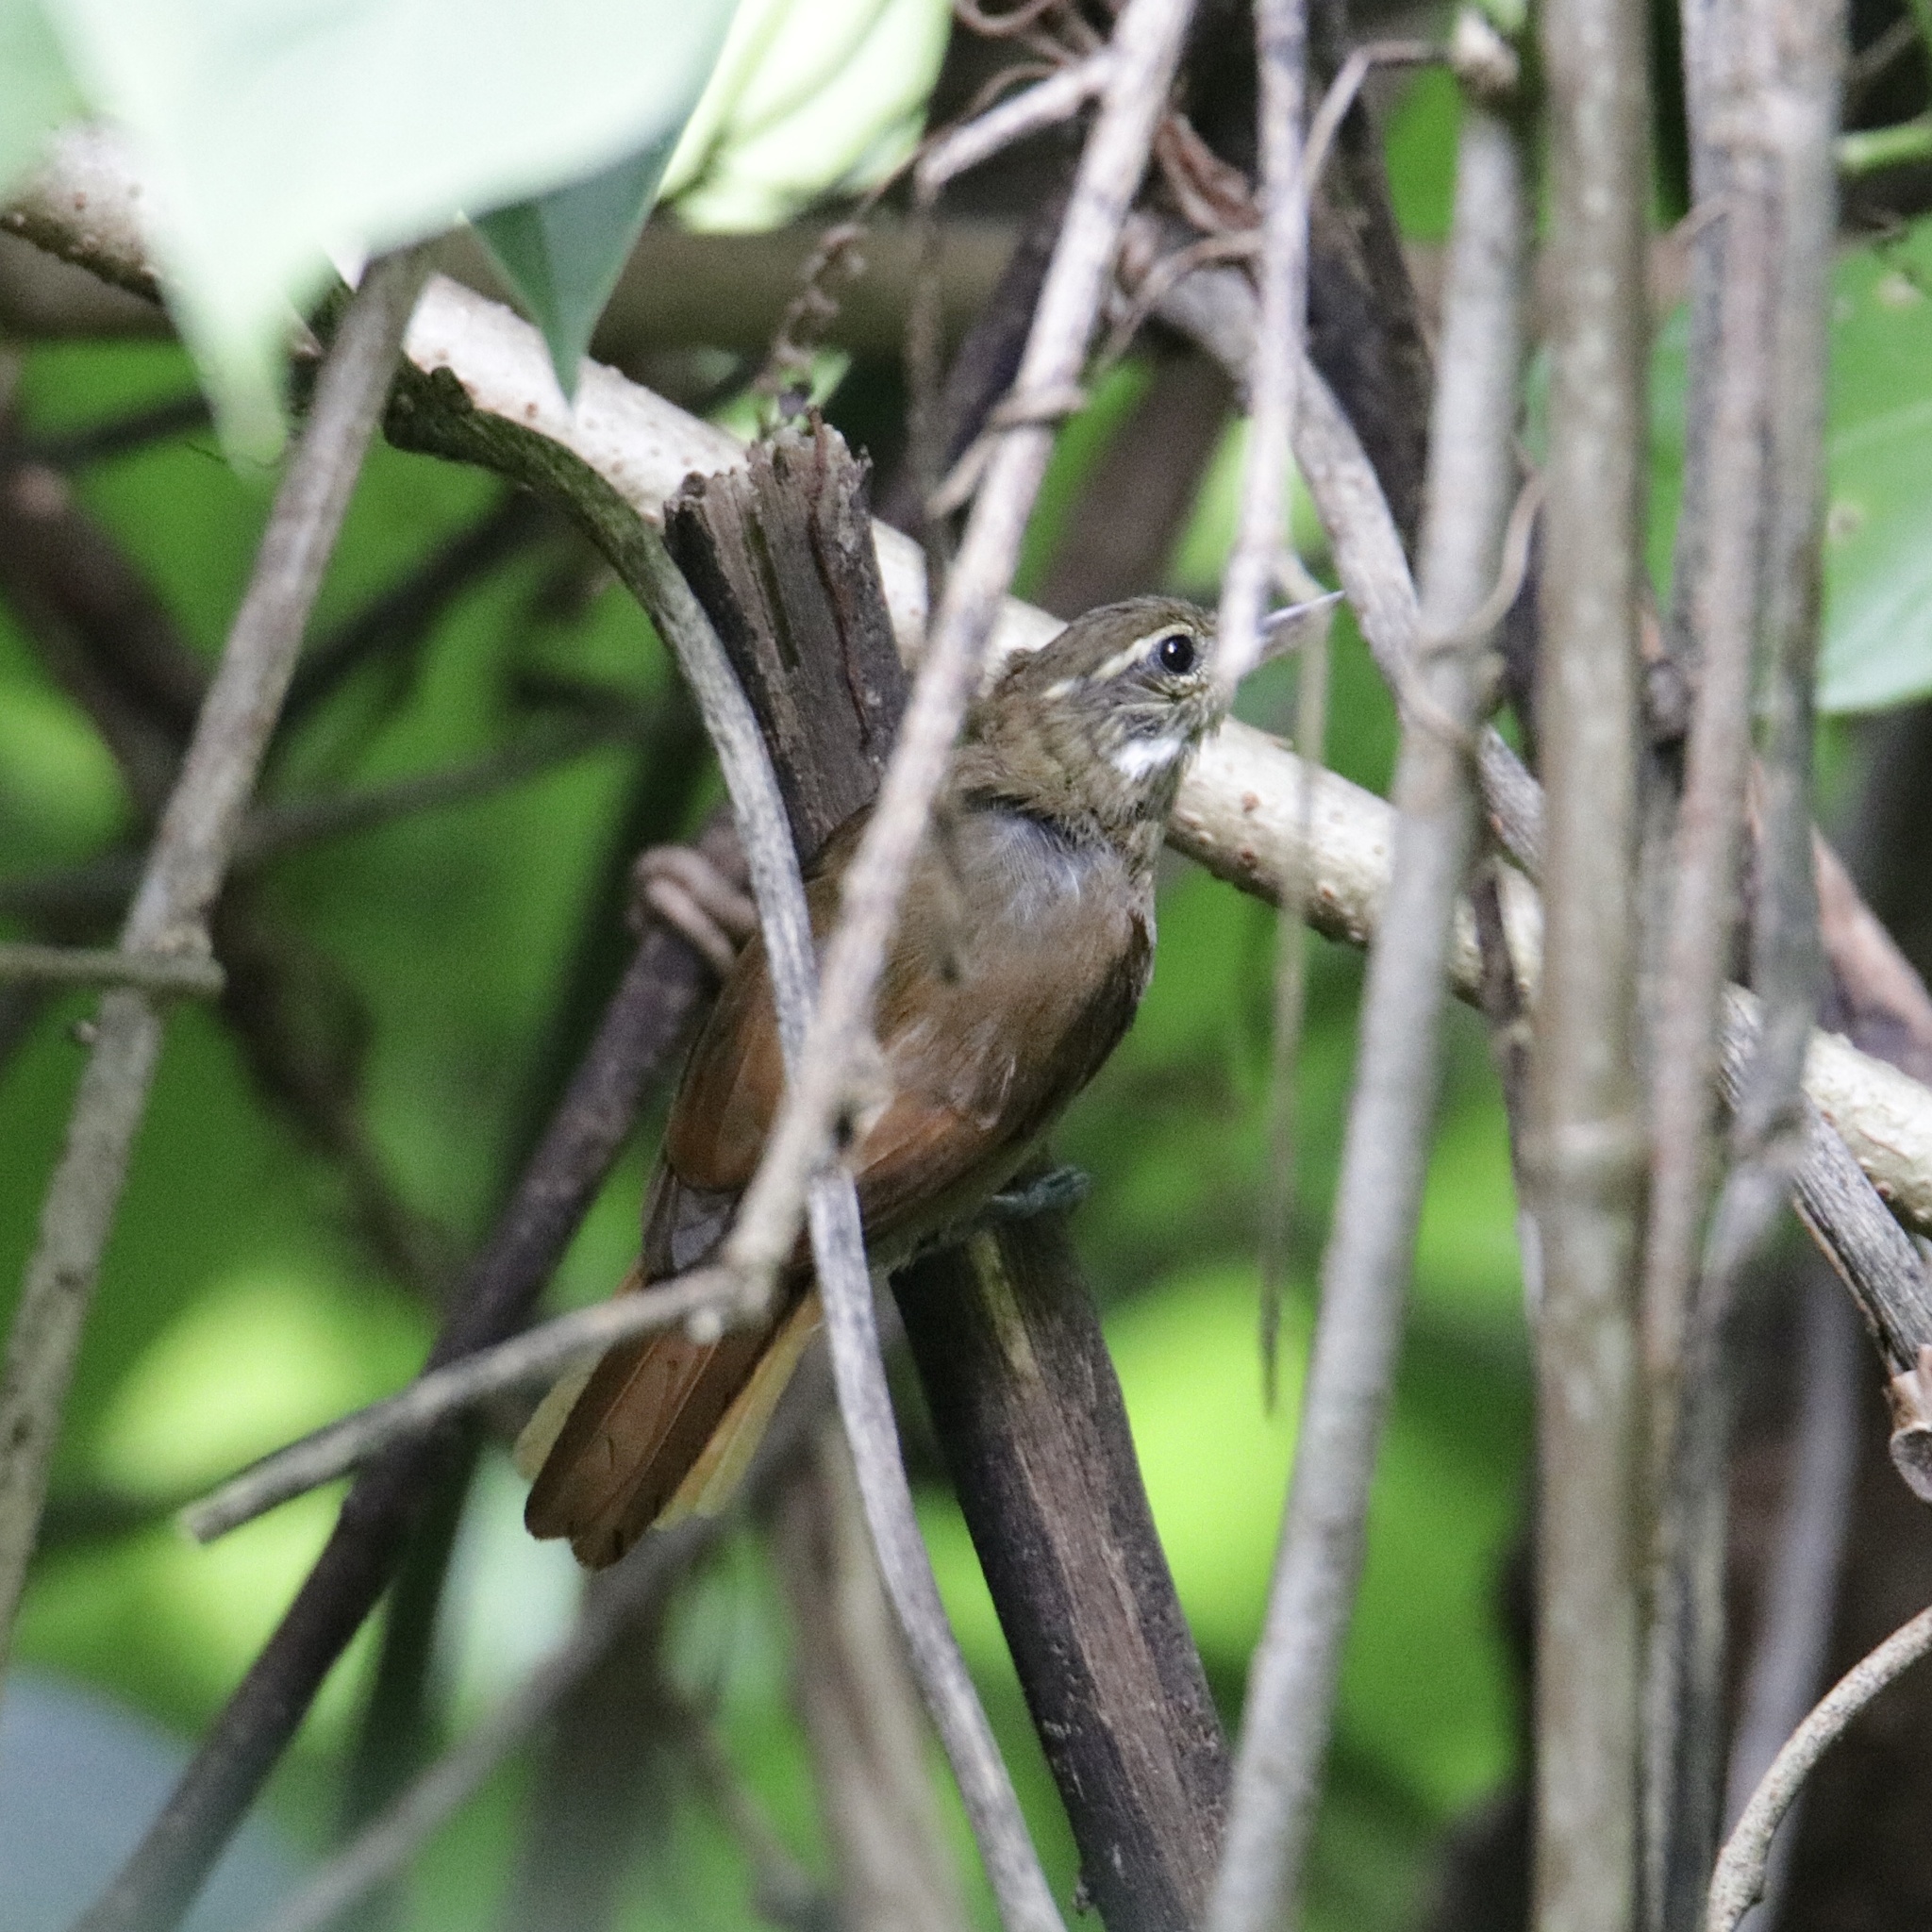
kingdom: Animalia
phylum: Chordata
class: Aves
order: Passeriformes
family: Furnariidae
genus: Xenops
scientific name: Xenops minutus
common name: Plain xenops
